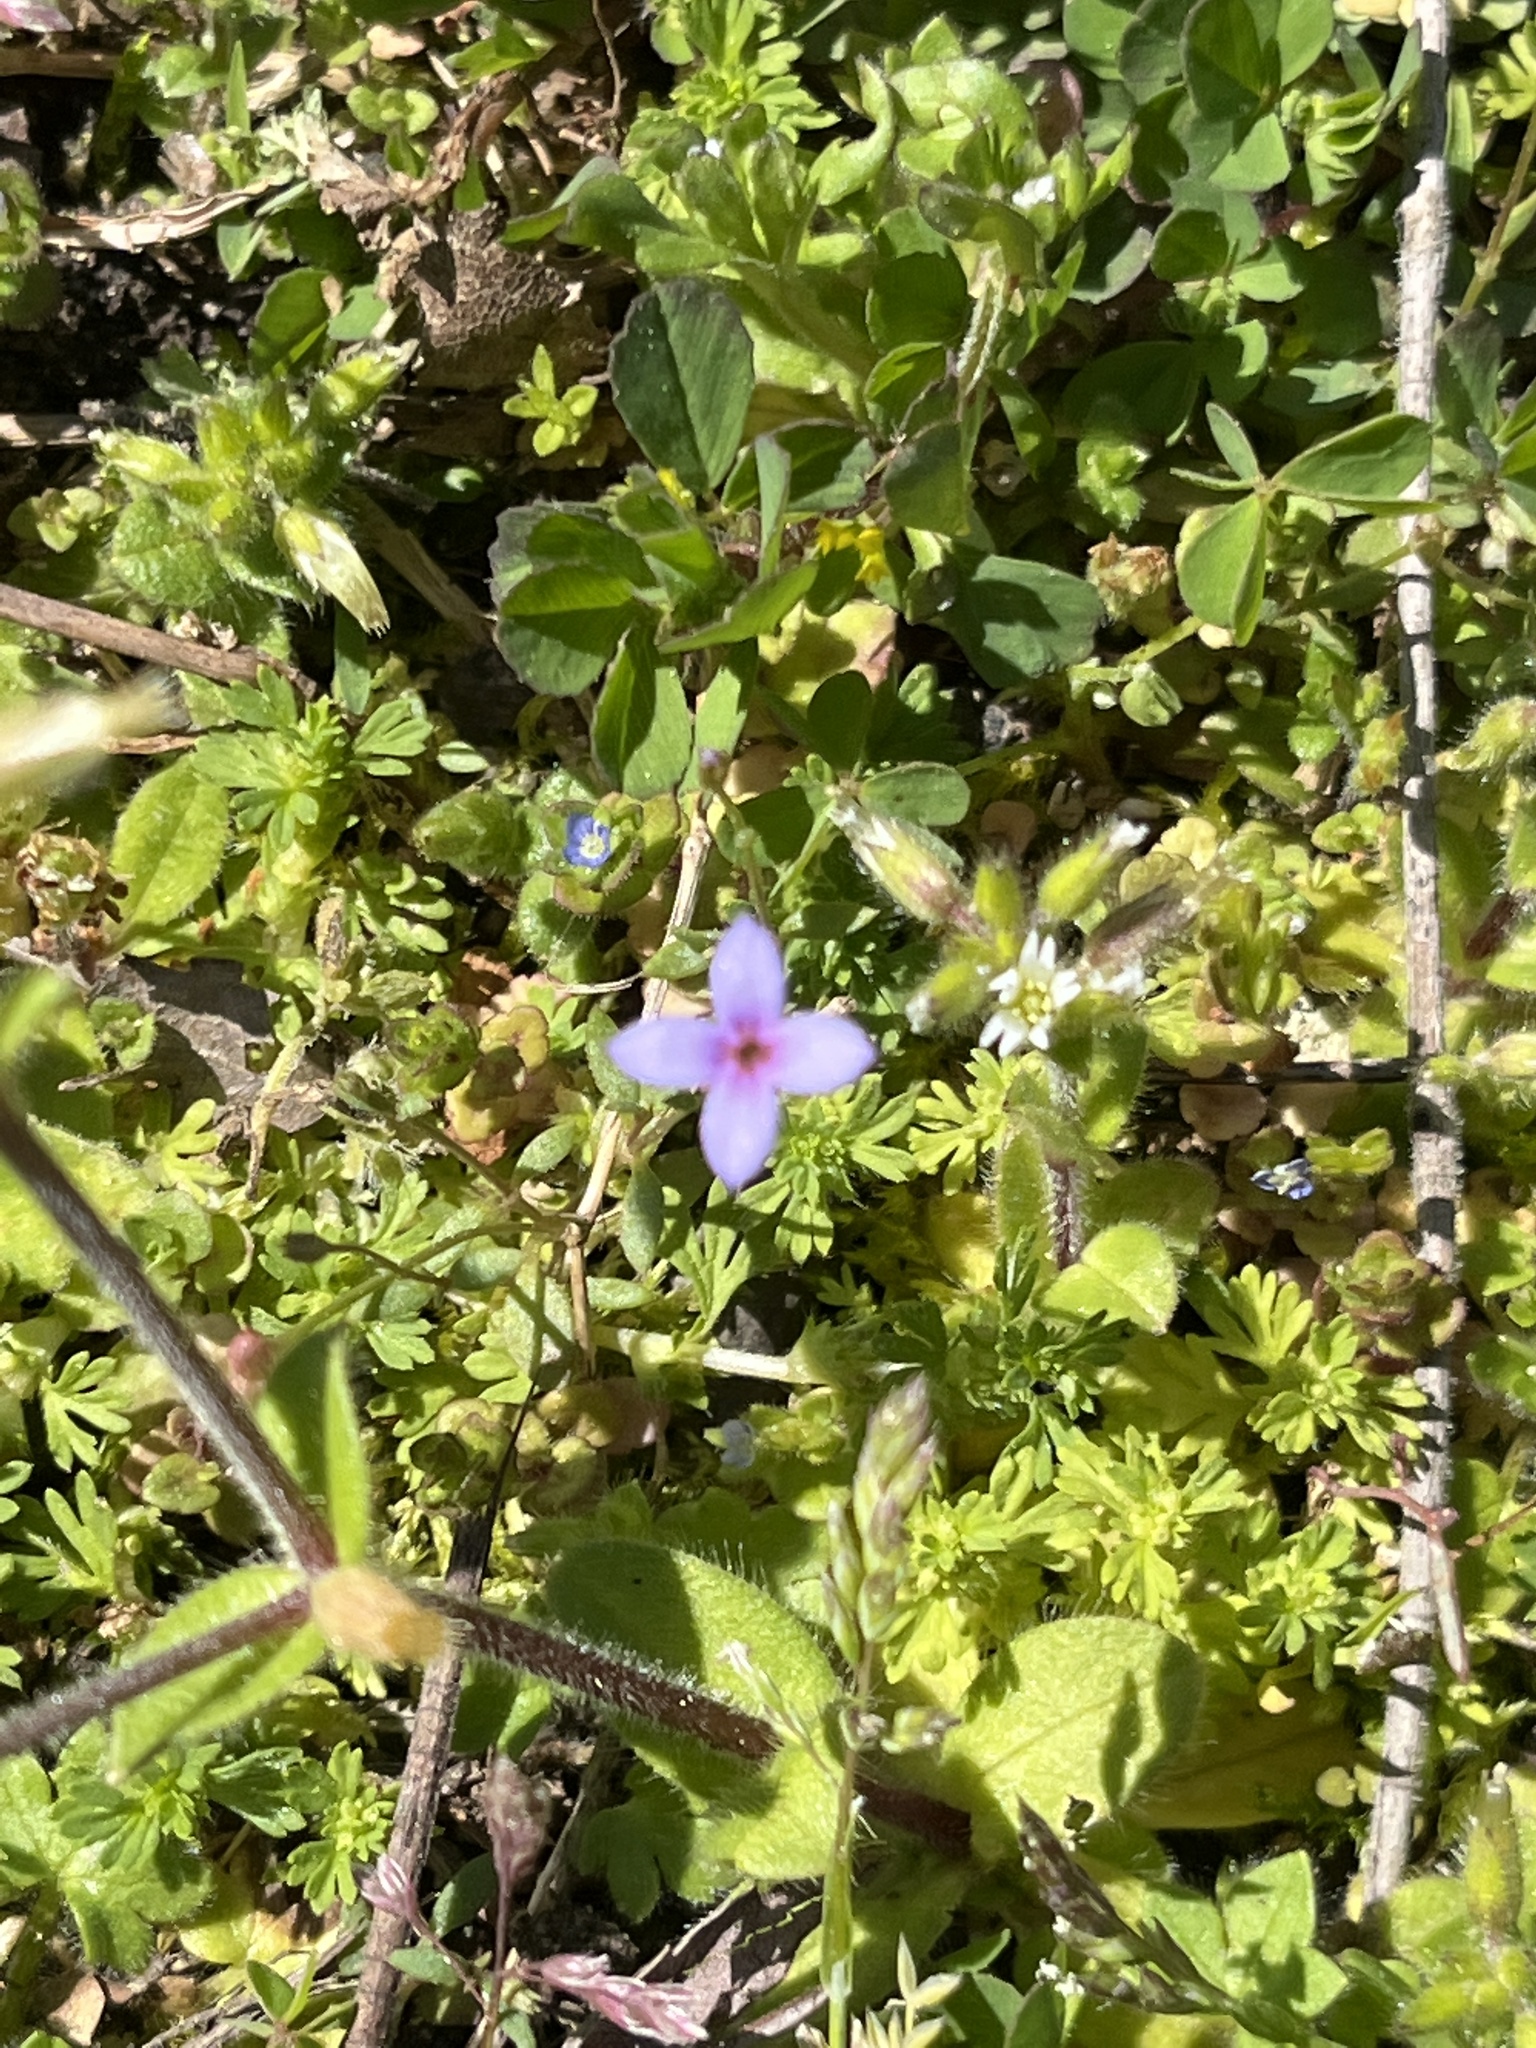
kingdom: Plantae
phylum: Tracheophyta
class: Magnoliopsida
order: Gentianales
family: Rubiaceae
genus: Houstonia
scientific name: Houstonia pusilla
